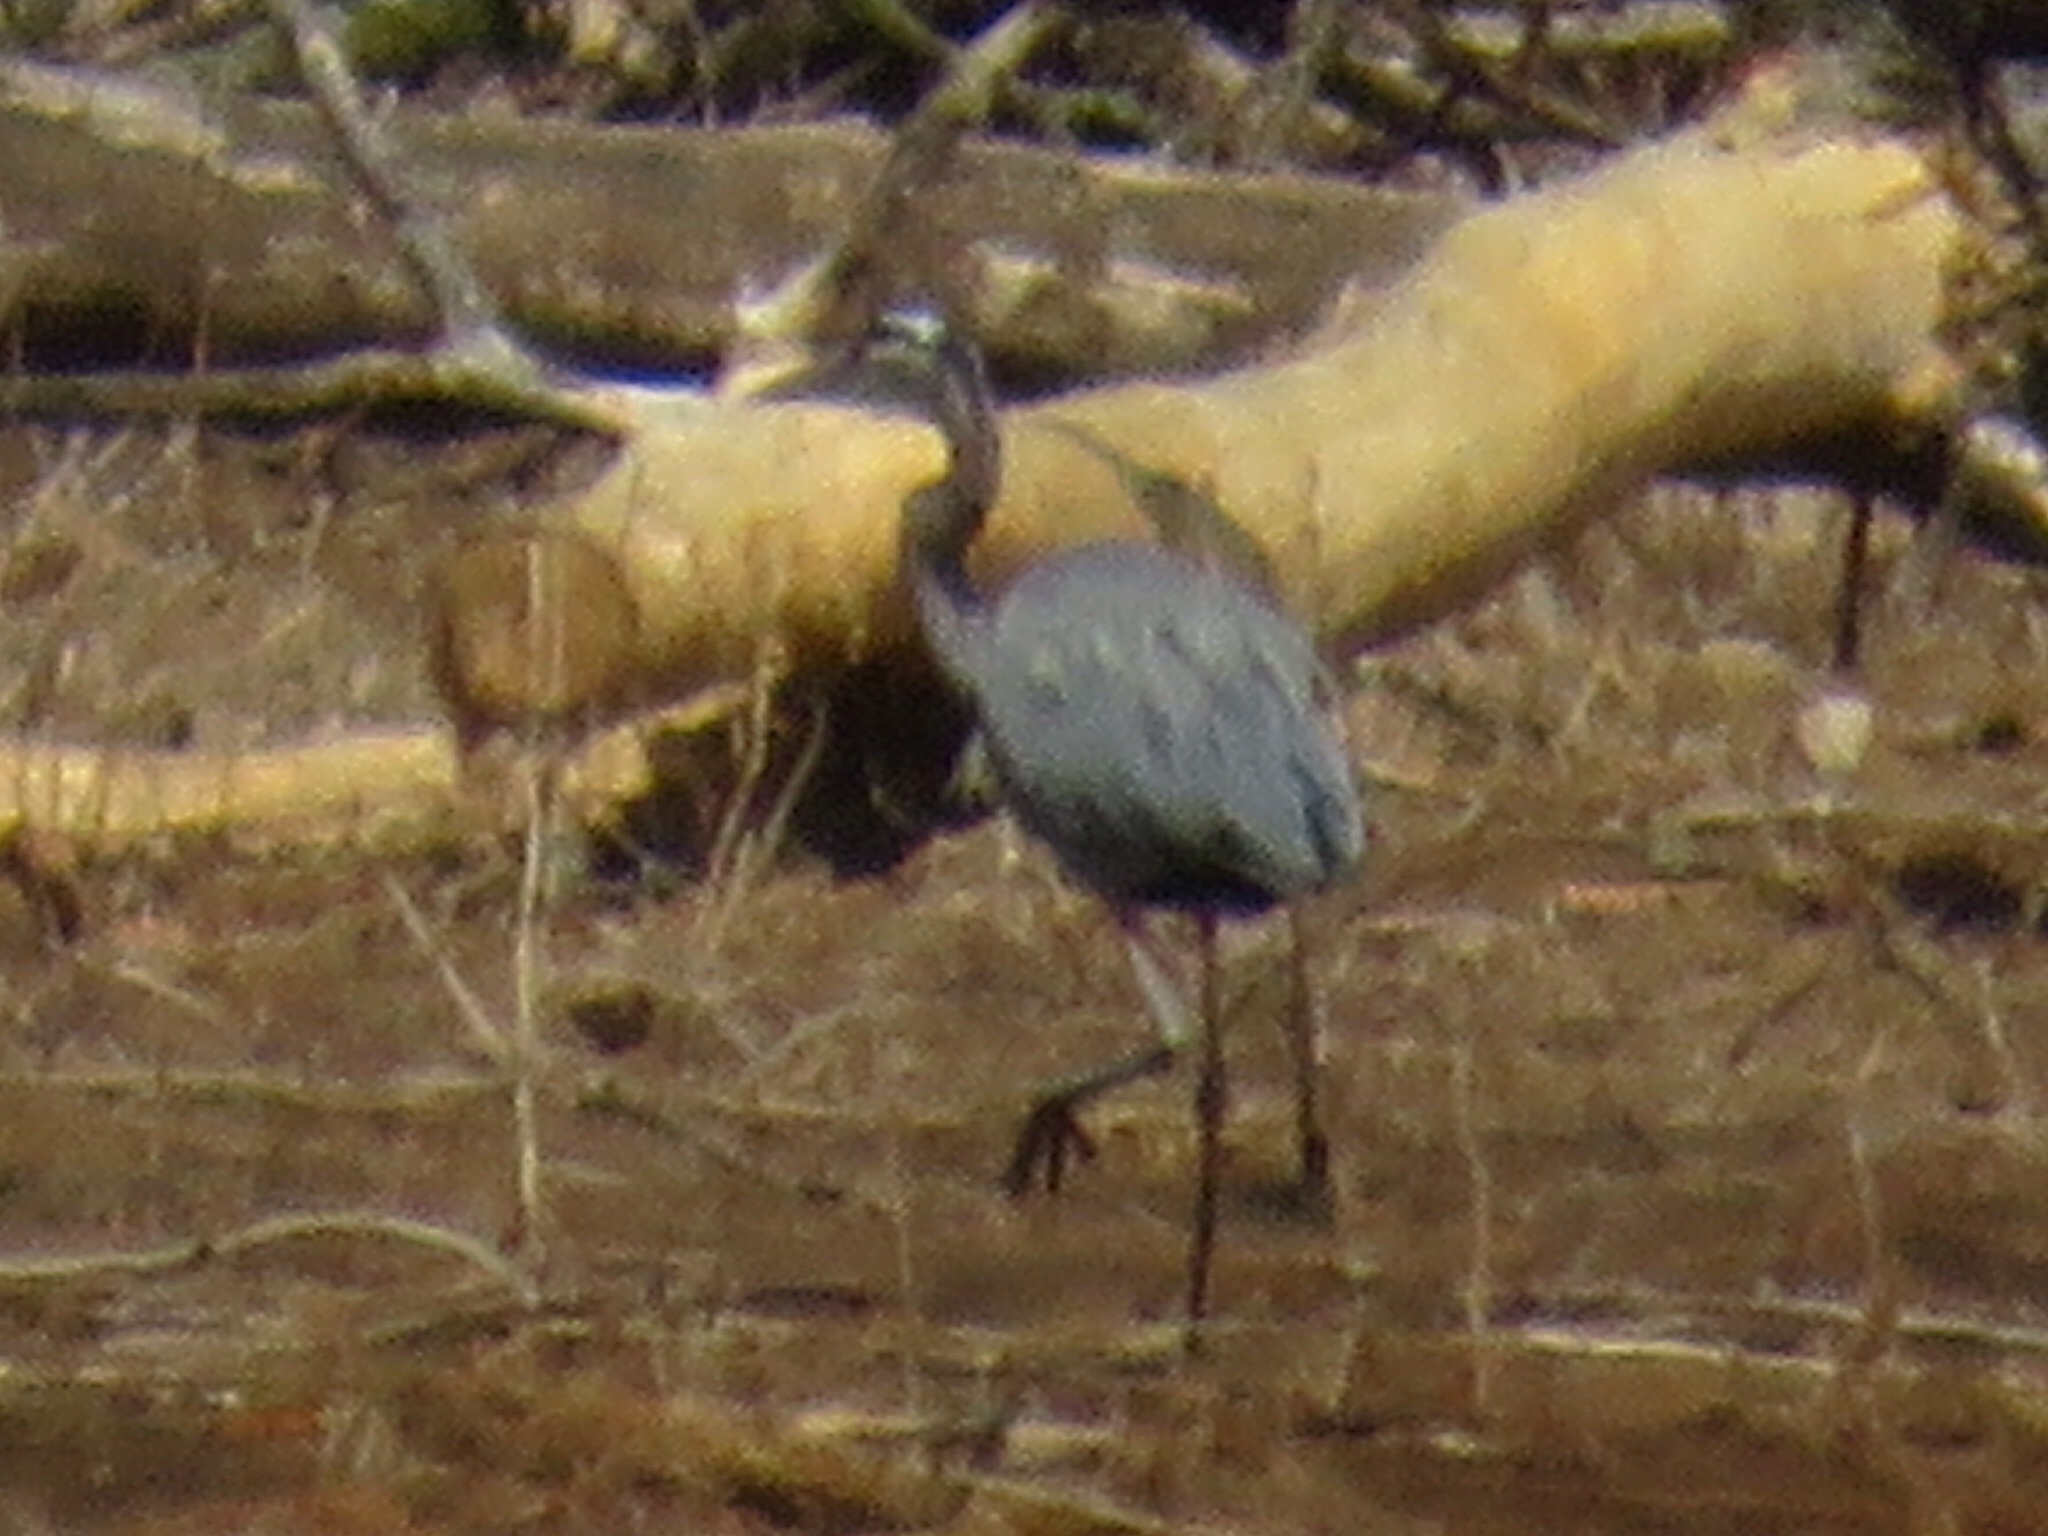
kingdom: Animalia
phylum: Chordata
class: Aves
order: Pelecaniformes
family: Ardeidae
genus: Ardea
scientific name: Ardea herodias
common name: Great blue heron
